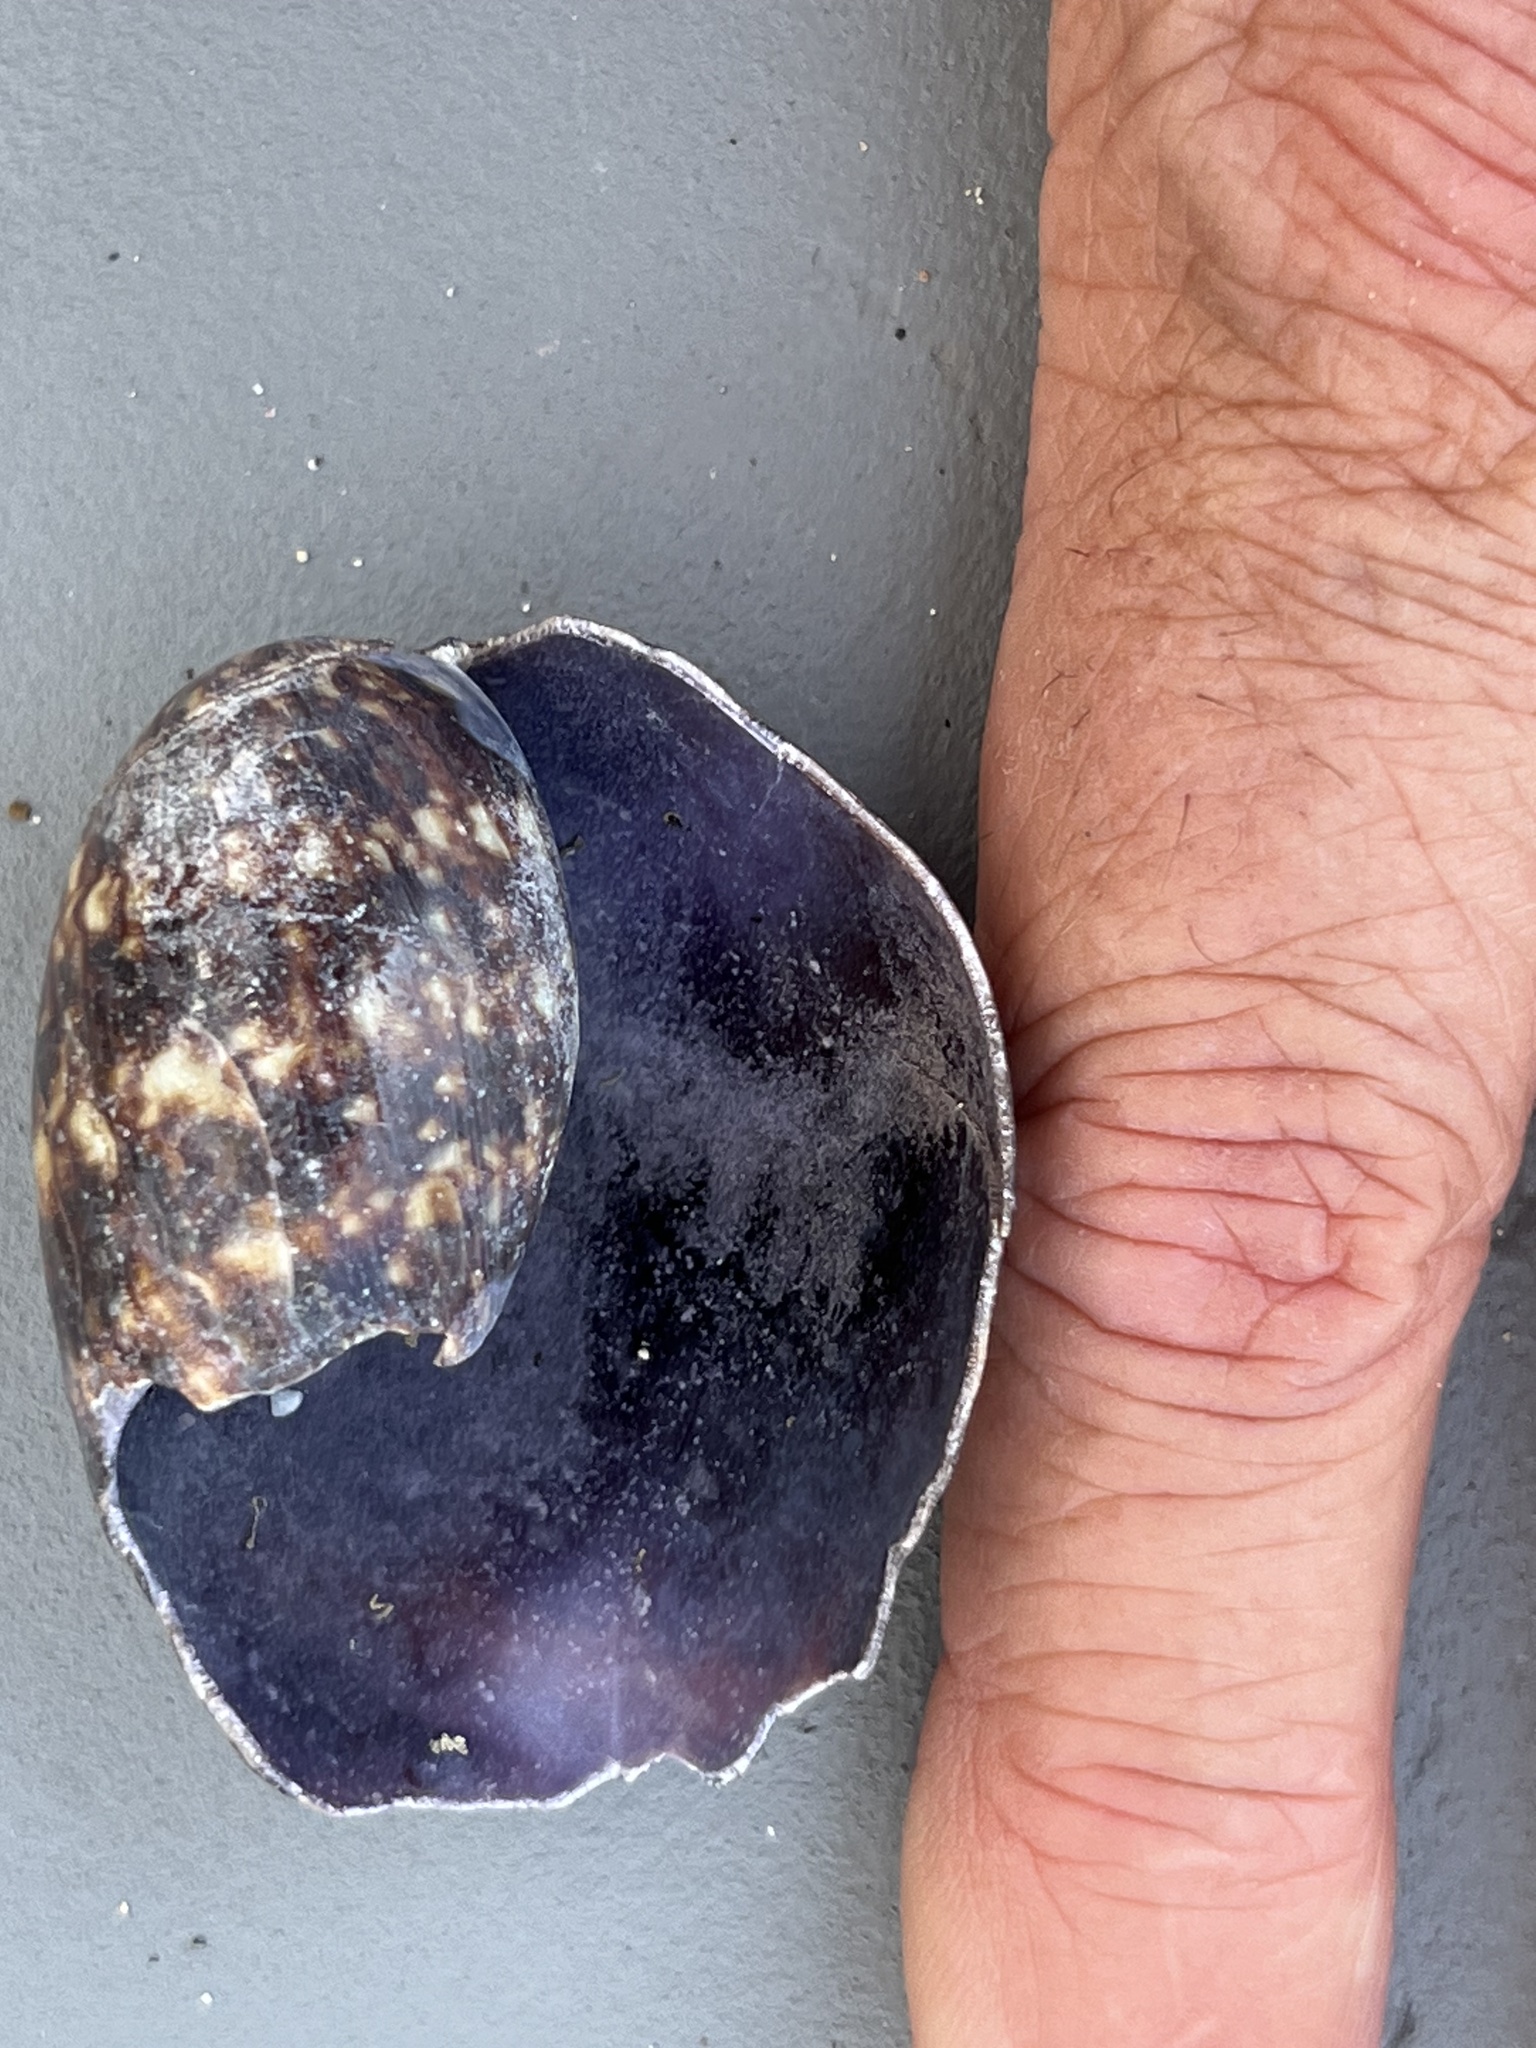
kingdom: Animalia
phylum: Mollusca
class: Gastropoda
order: Littorinimorpha
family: Cypraeidae
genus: Mauritia
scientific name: Mauritia mauritiana
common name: Hump-backed cowrie
